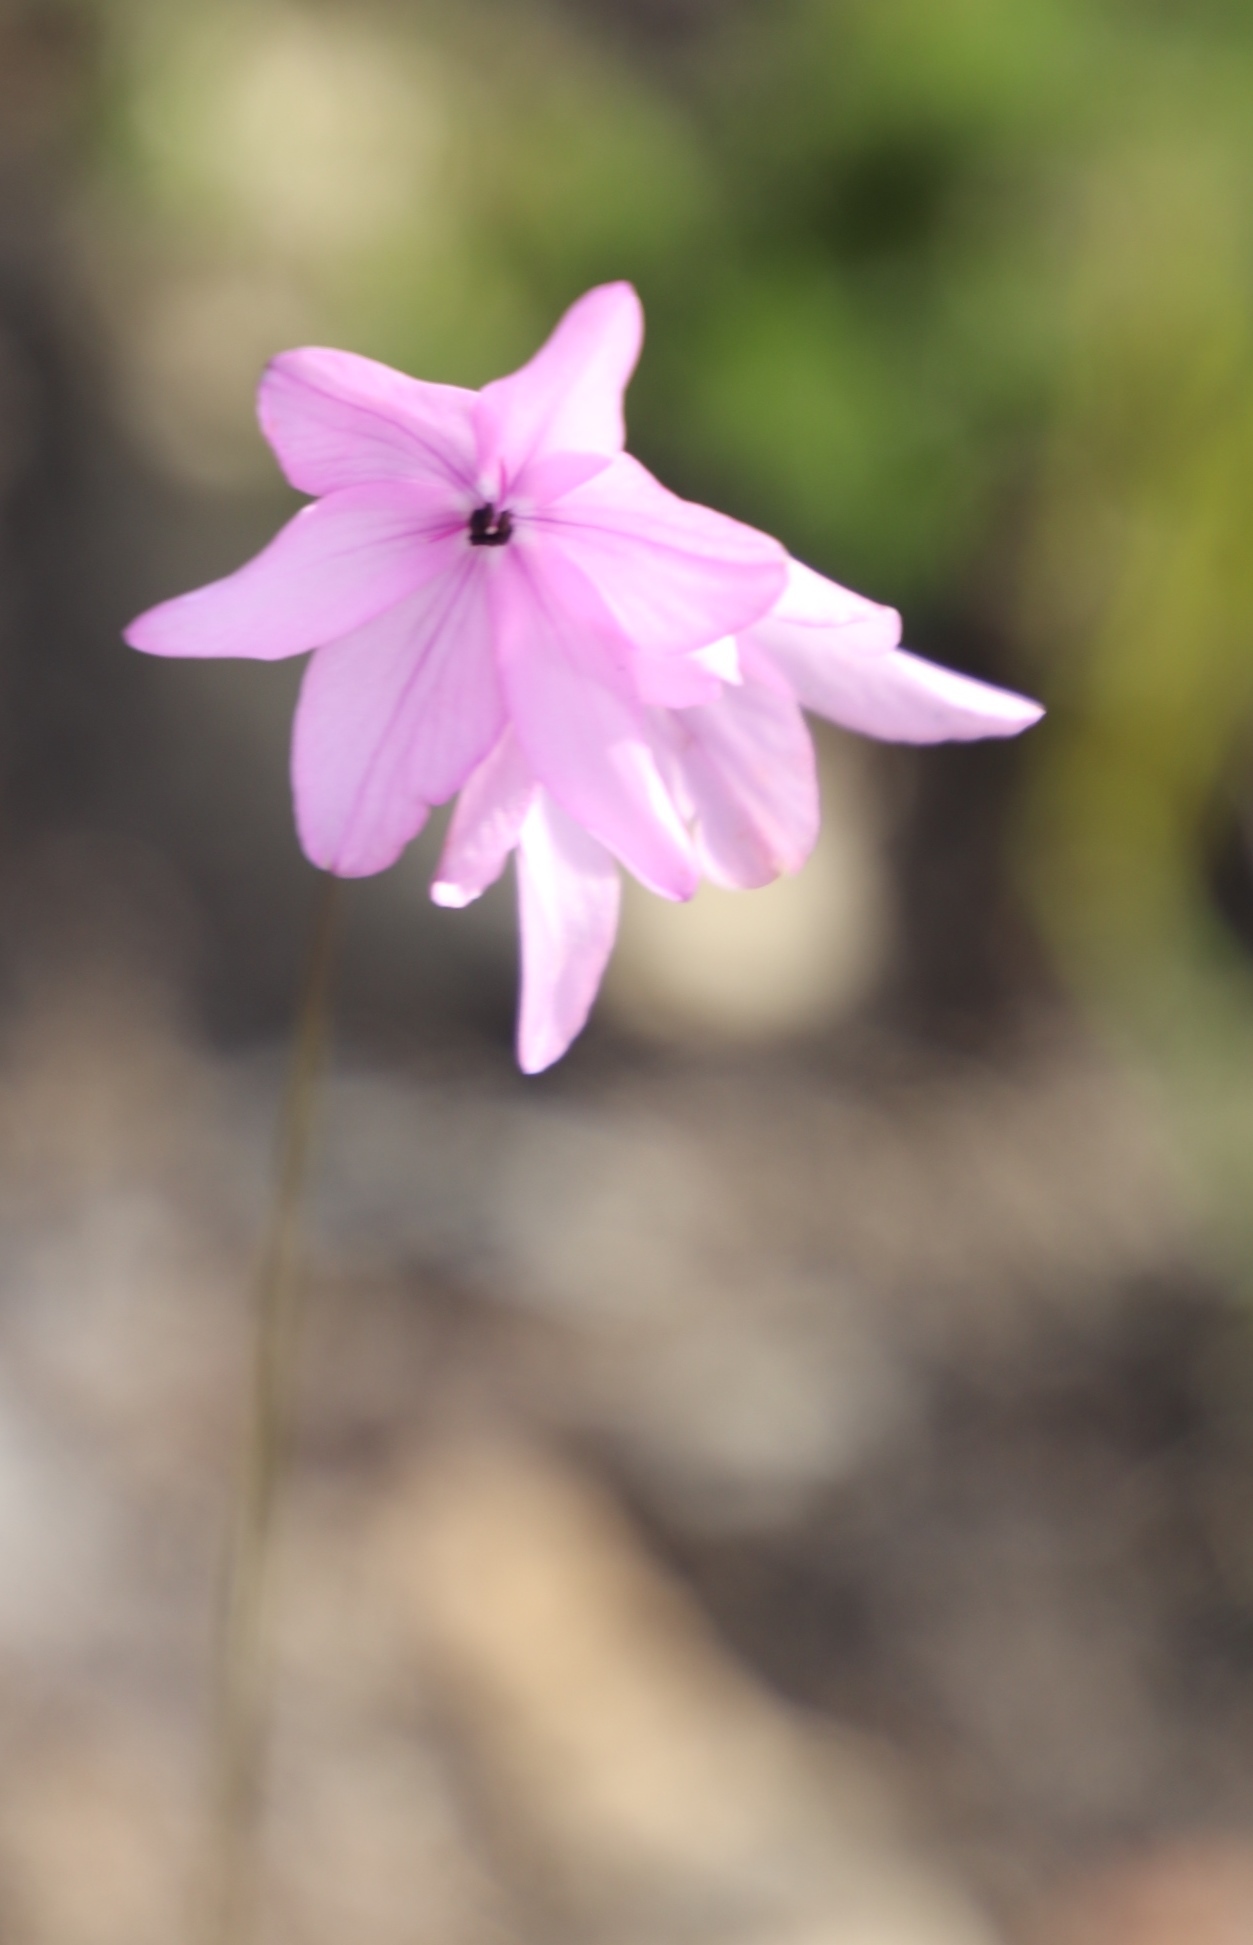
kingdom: Plantae
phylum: Tracheophyta
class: Liliopsida
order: Asparagales
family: Iridaceae
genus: Ixia
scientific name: Ixia micrandra
